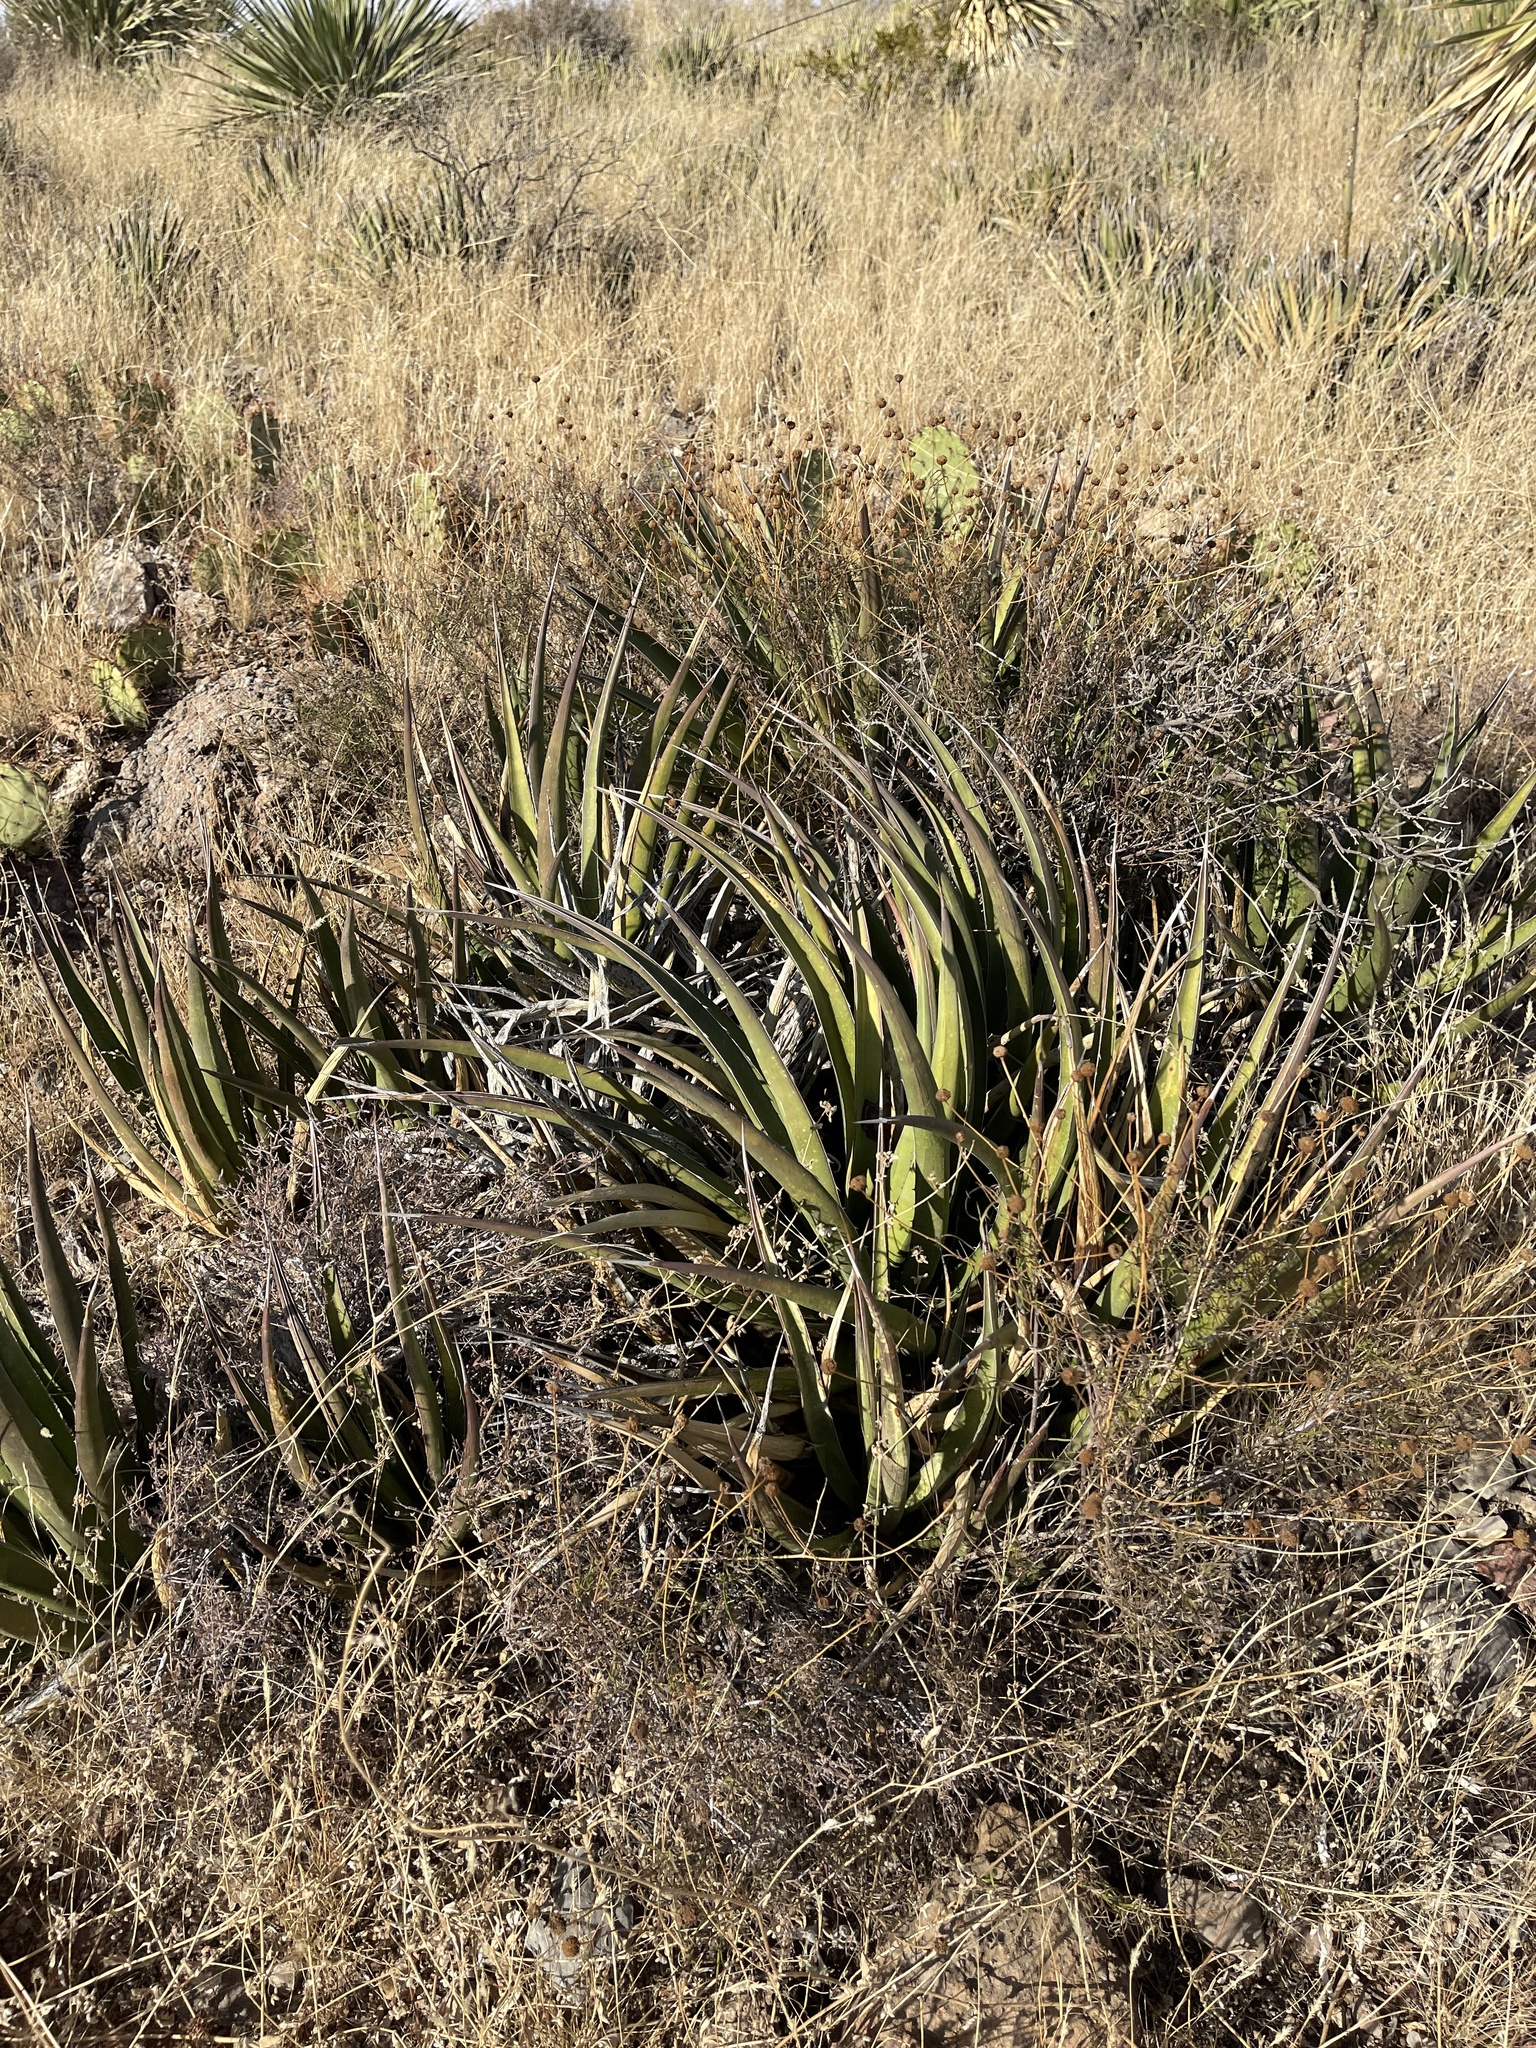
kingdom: Plantae
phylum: Tracheophyta
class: Liliopsida
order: Asparagales
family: Asparagaceae
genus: Agave
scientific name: Agave lechuguilla
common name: Lecheguilla agave
